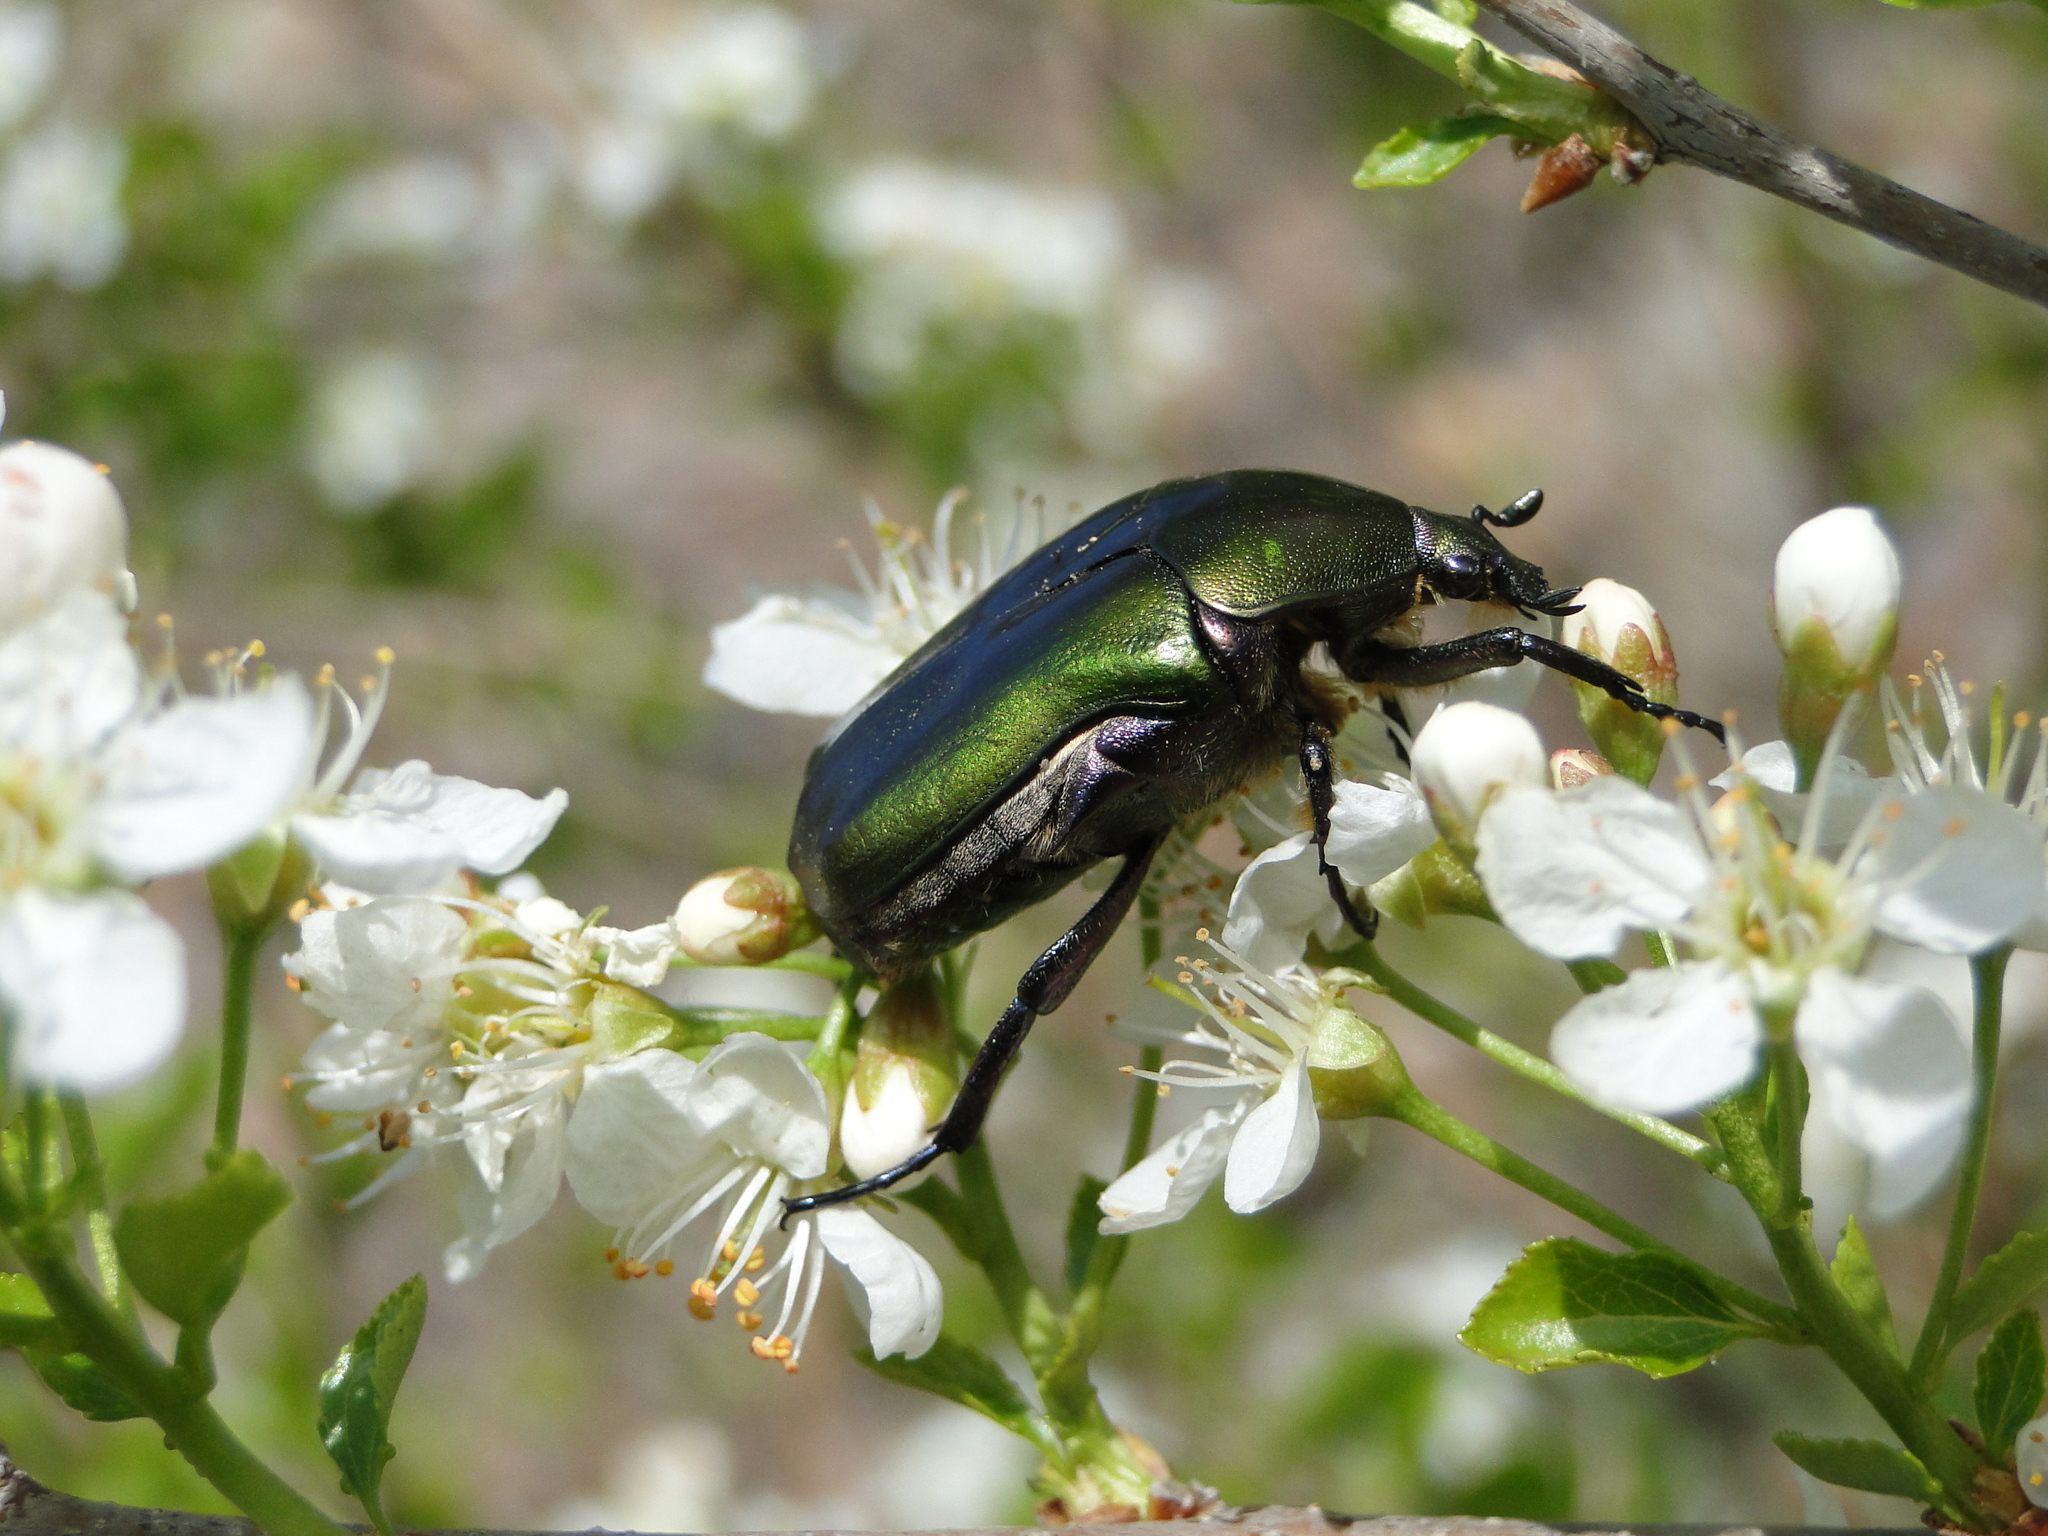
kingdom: Animalia
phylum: Arthropoda
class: Insecta
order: Coleoptera
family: Scarabaeidae
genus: Protaetia
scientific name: Protaetia cuprea
